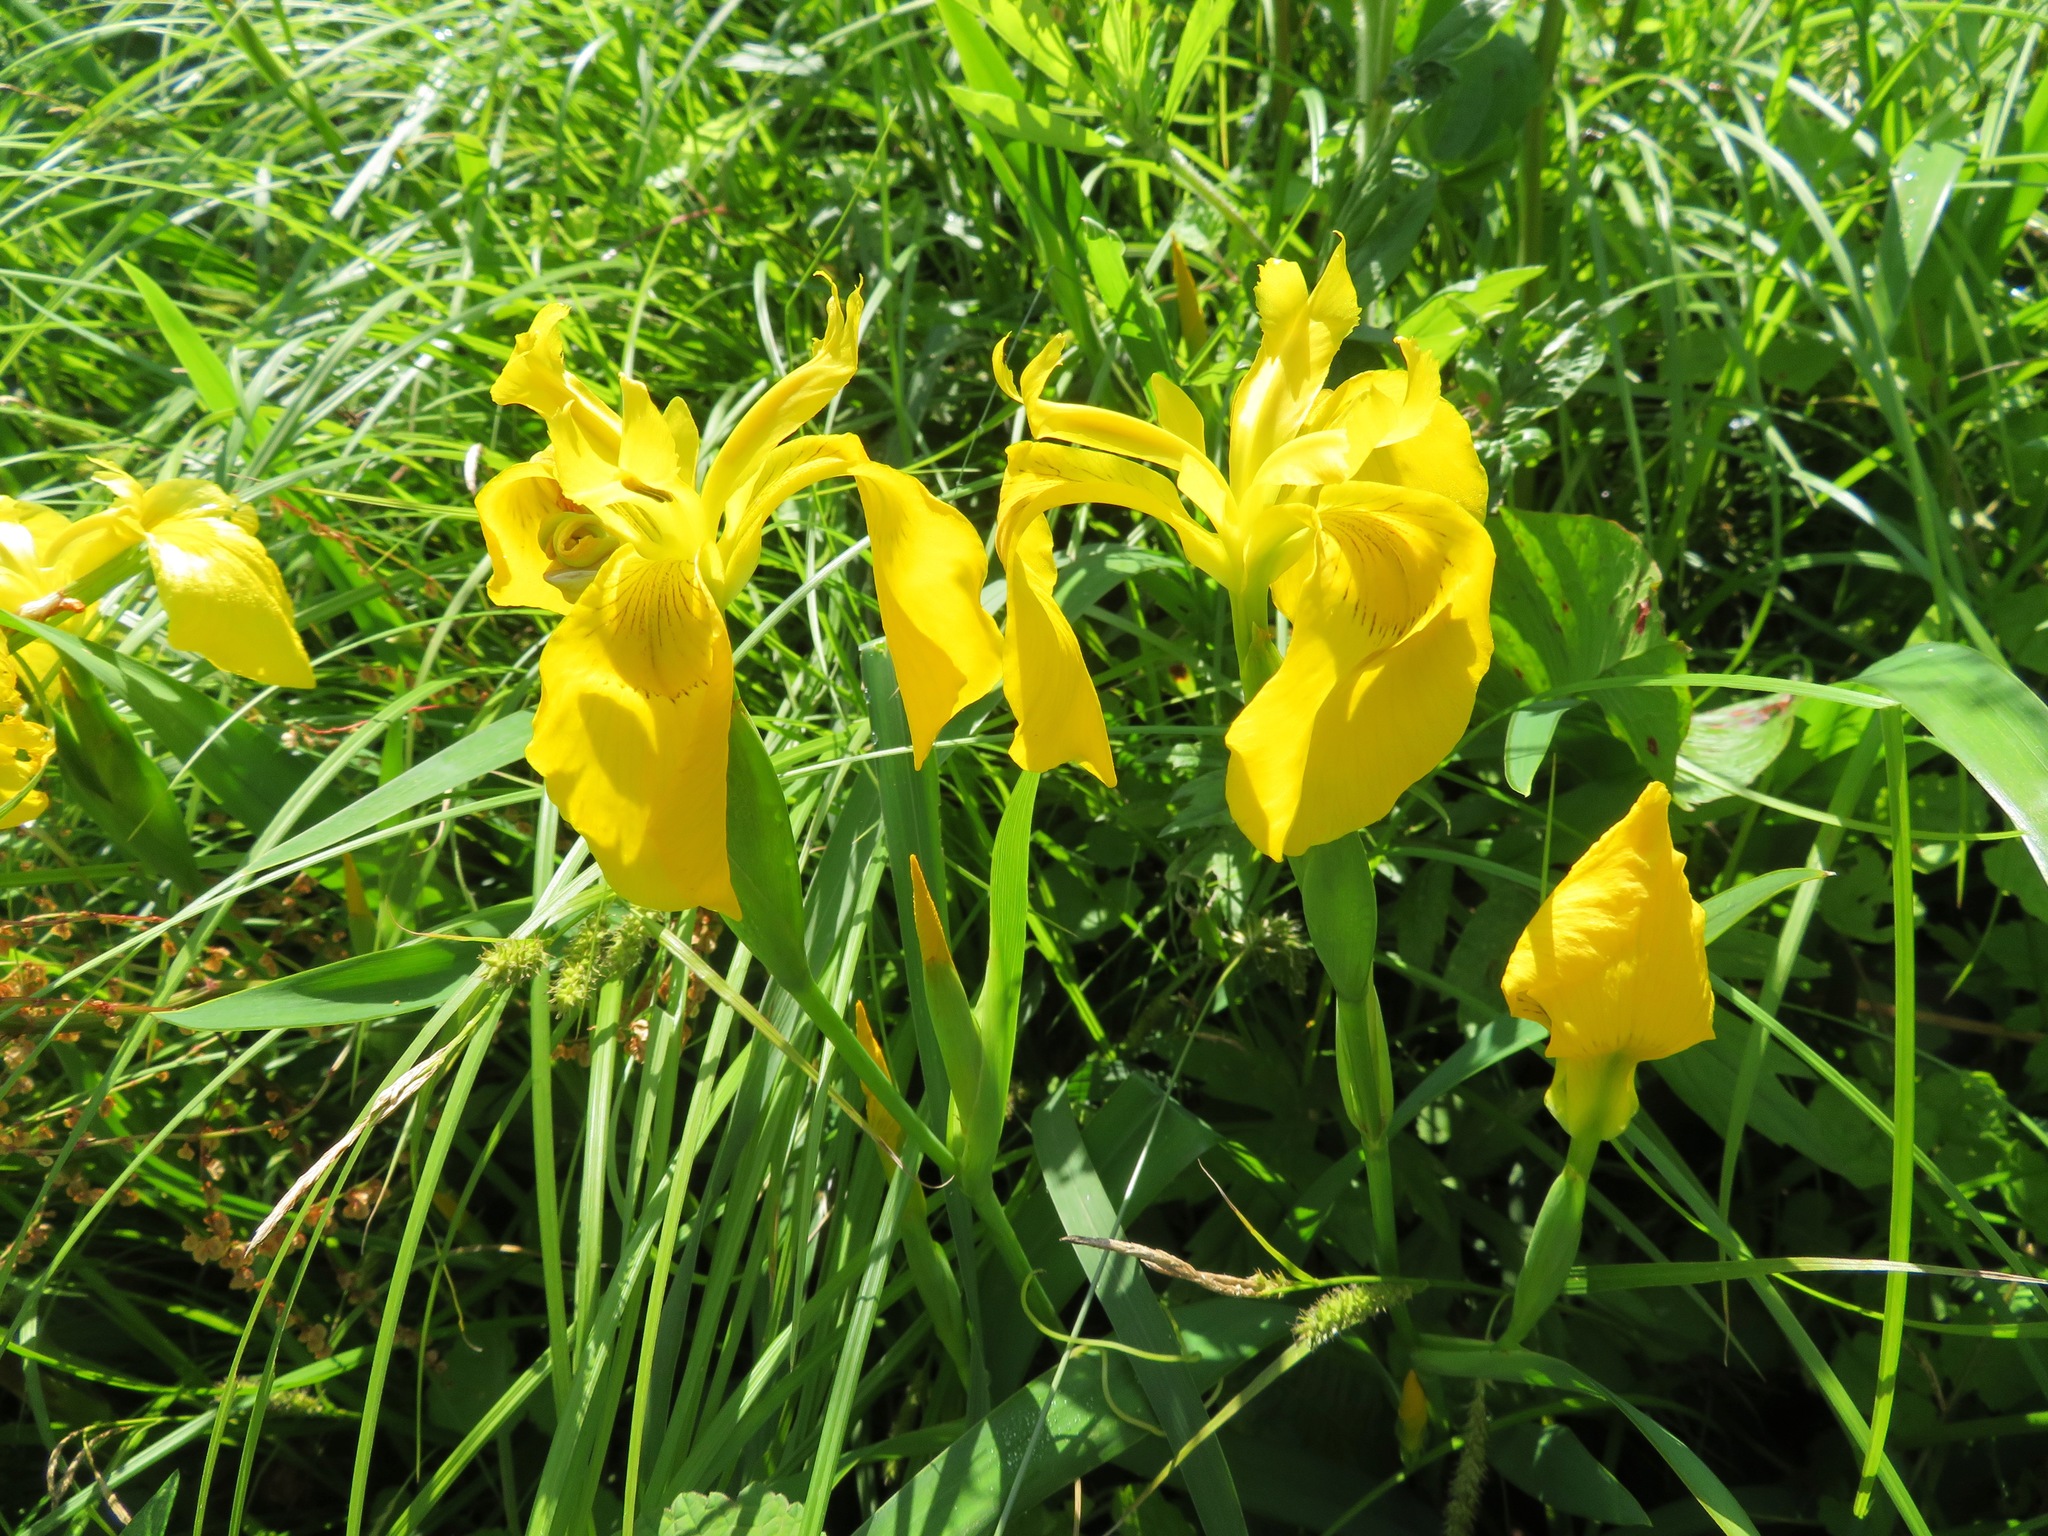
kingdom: Plantae
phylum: Tracheophyta
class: Liliopsida
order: Asparagales
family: Iridaceae
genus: Iris
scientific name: Iris pseudacorus
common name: Yellow flag
